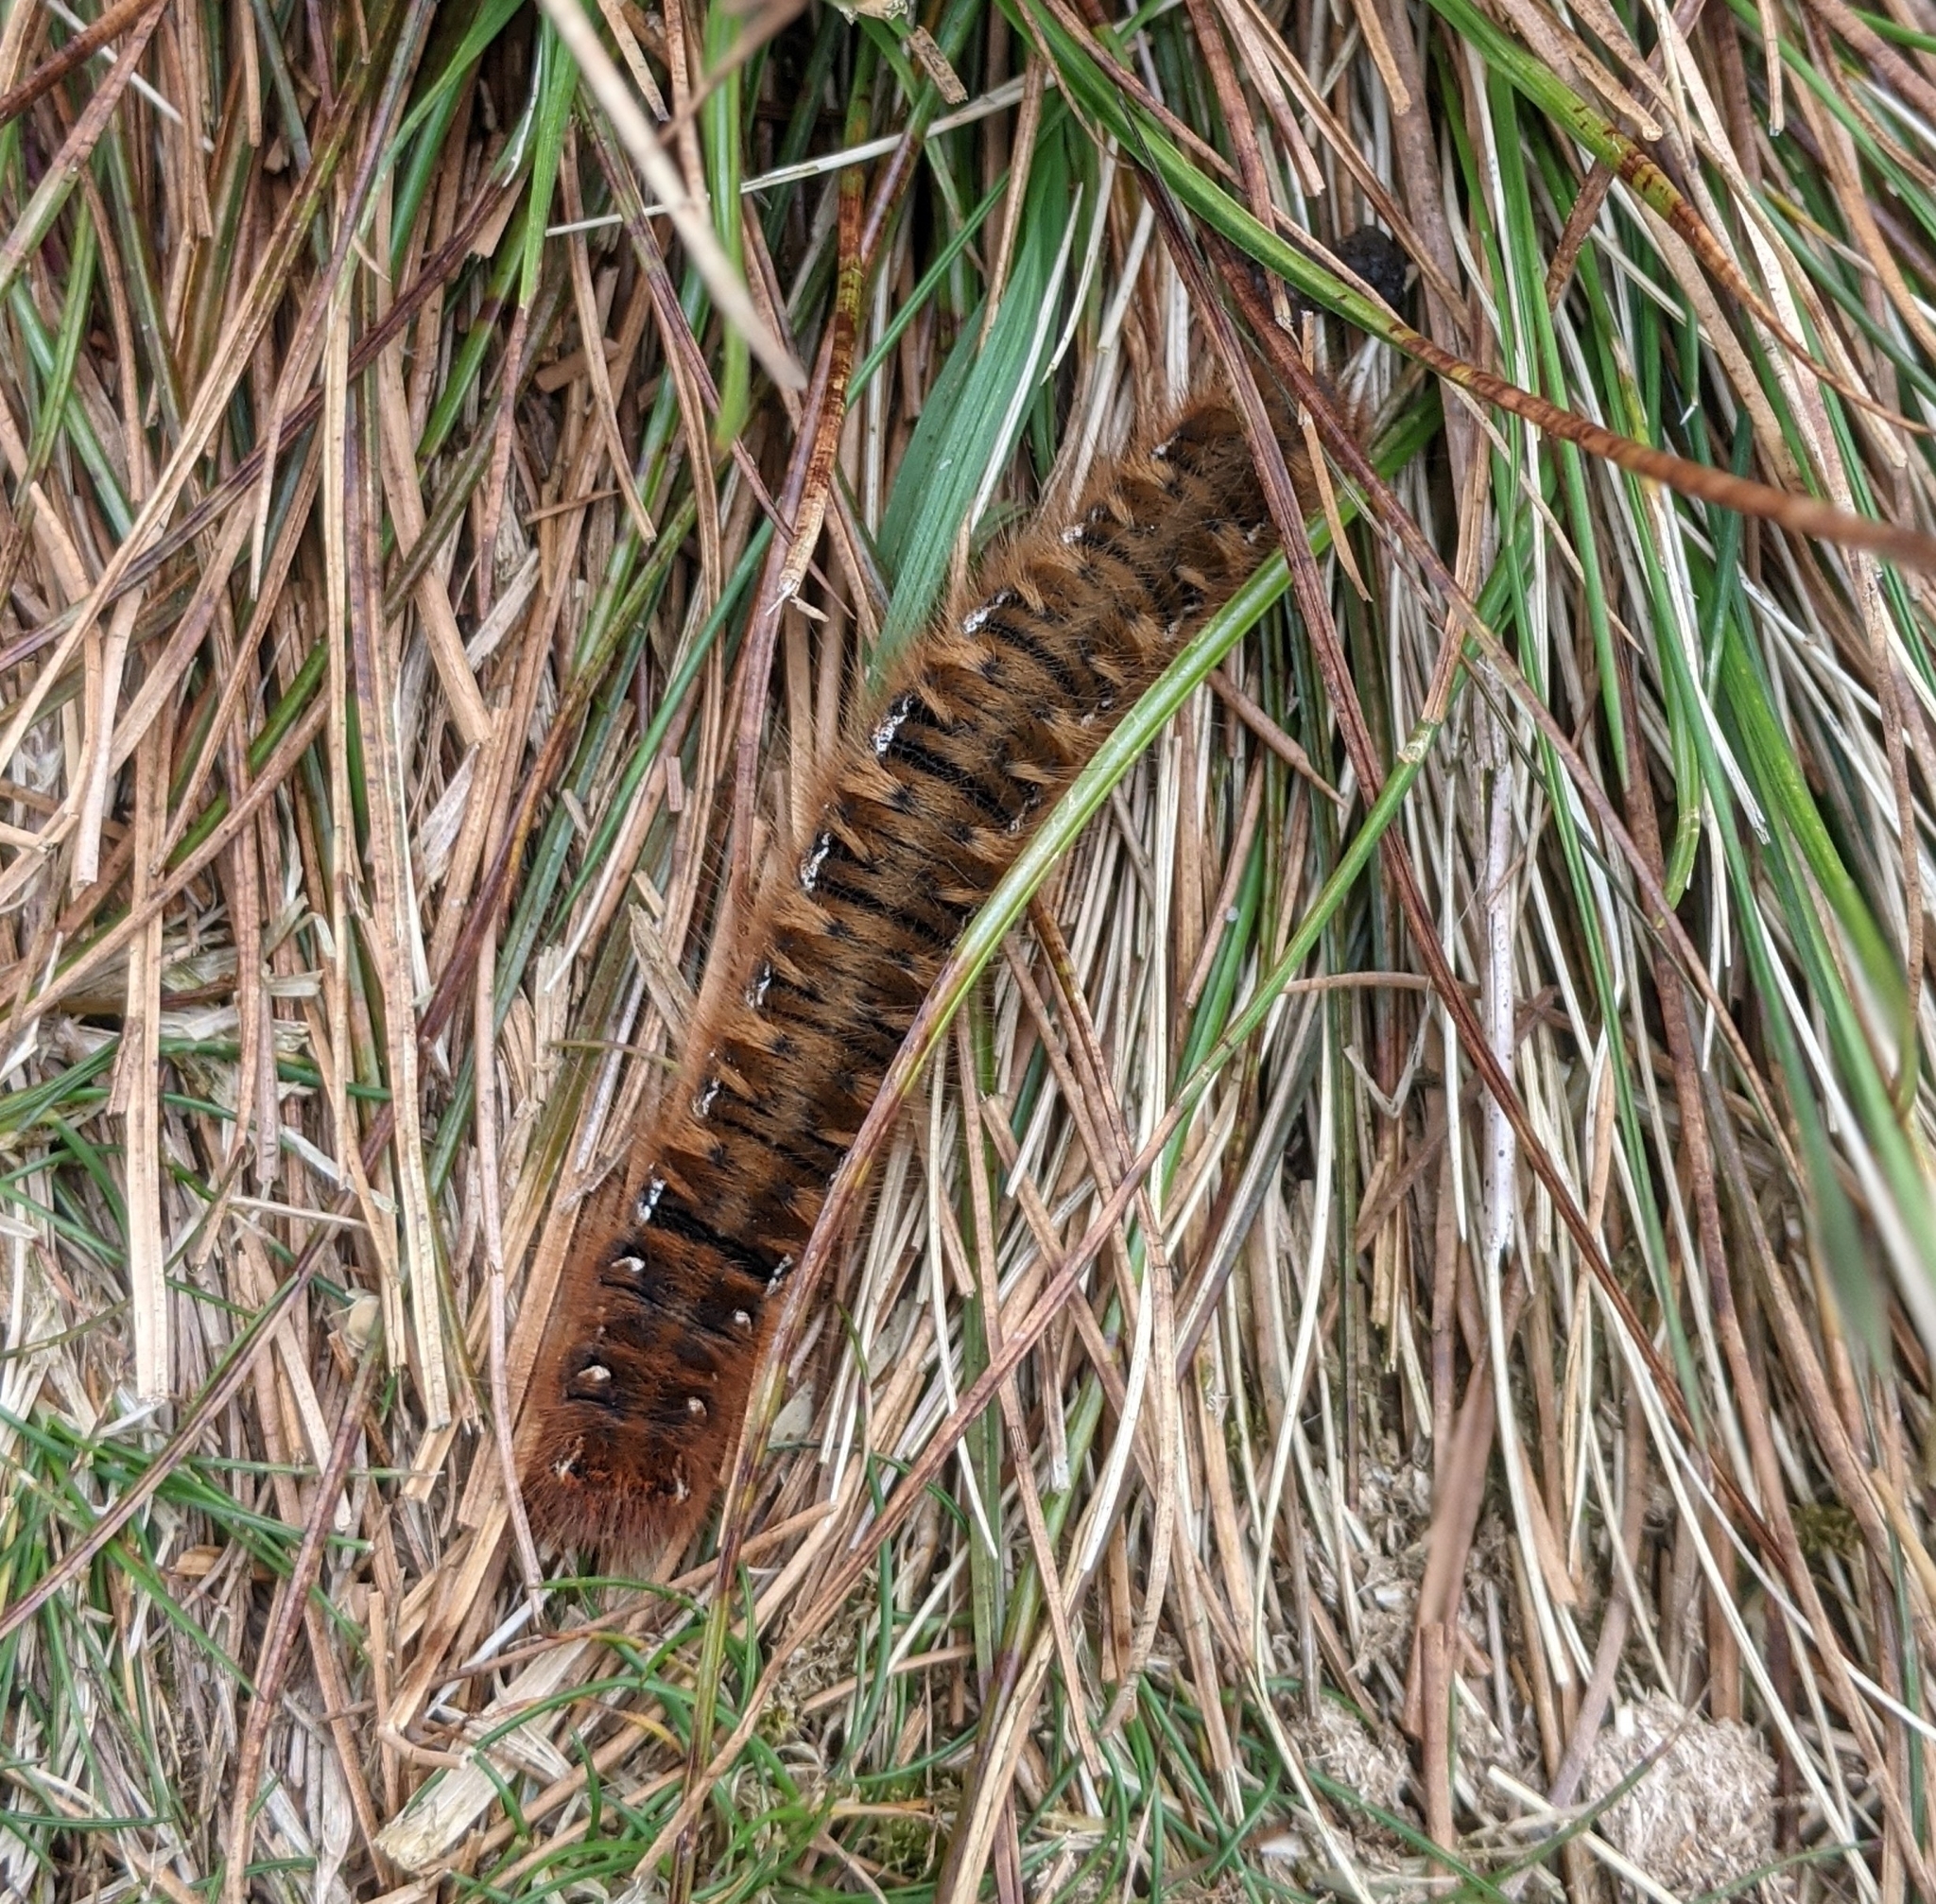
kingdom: Animalia
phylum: Arthropoda
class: Insecta
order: Lepidoptera
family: Lasiocampidae
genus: Lasiocampa
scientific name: Lasiocampa quercus
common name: Oak eggar
